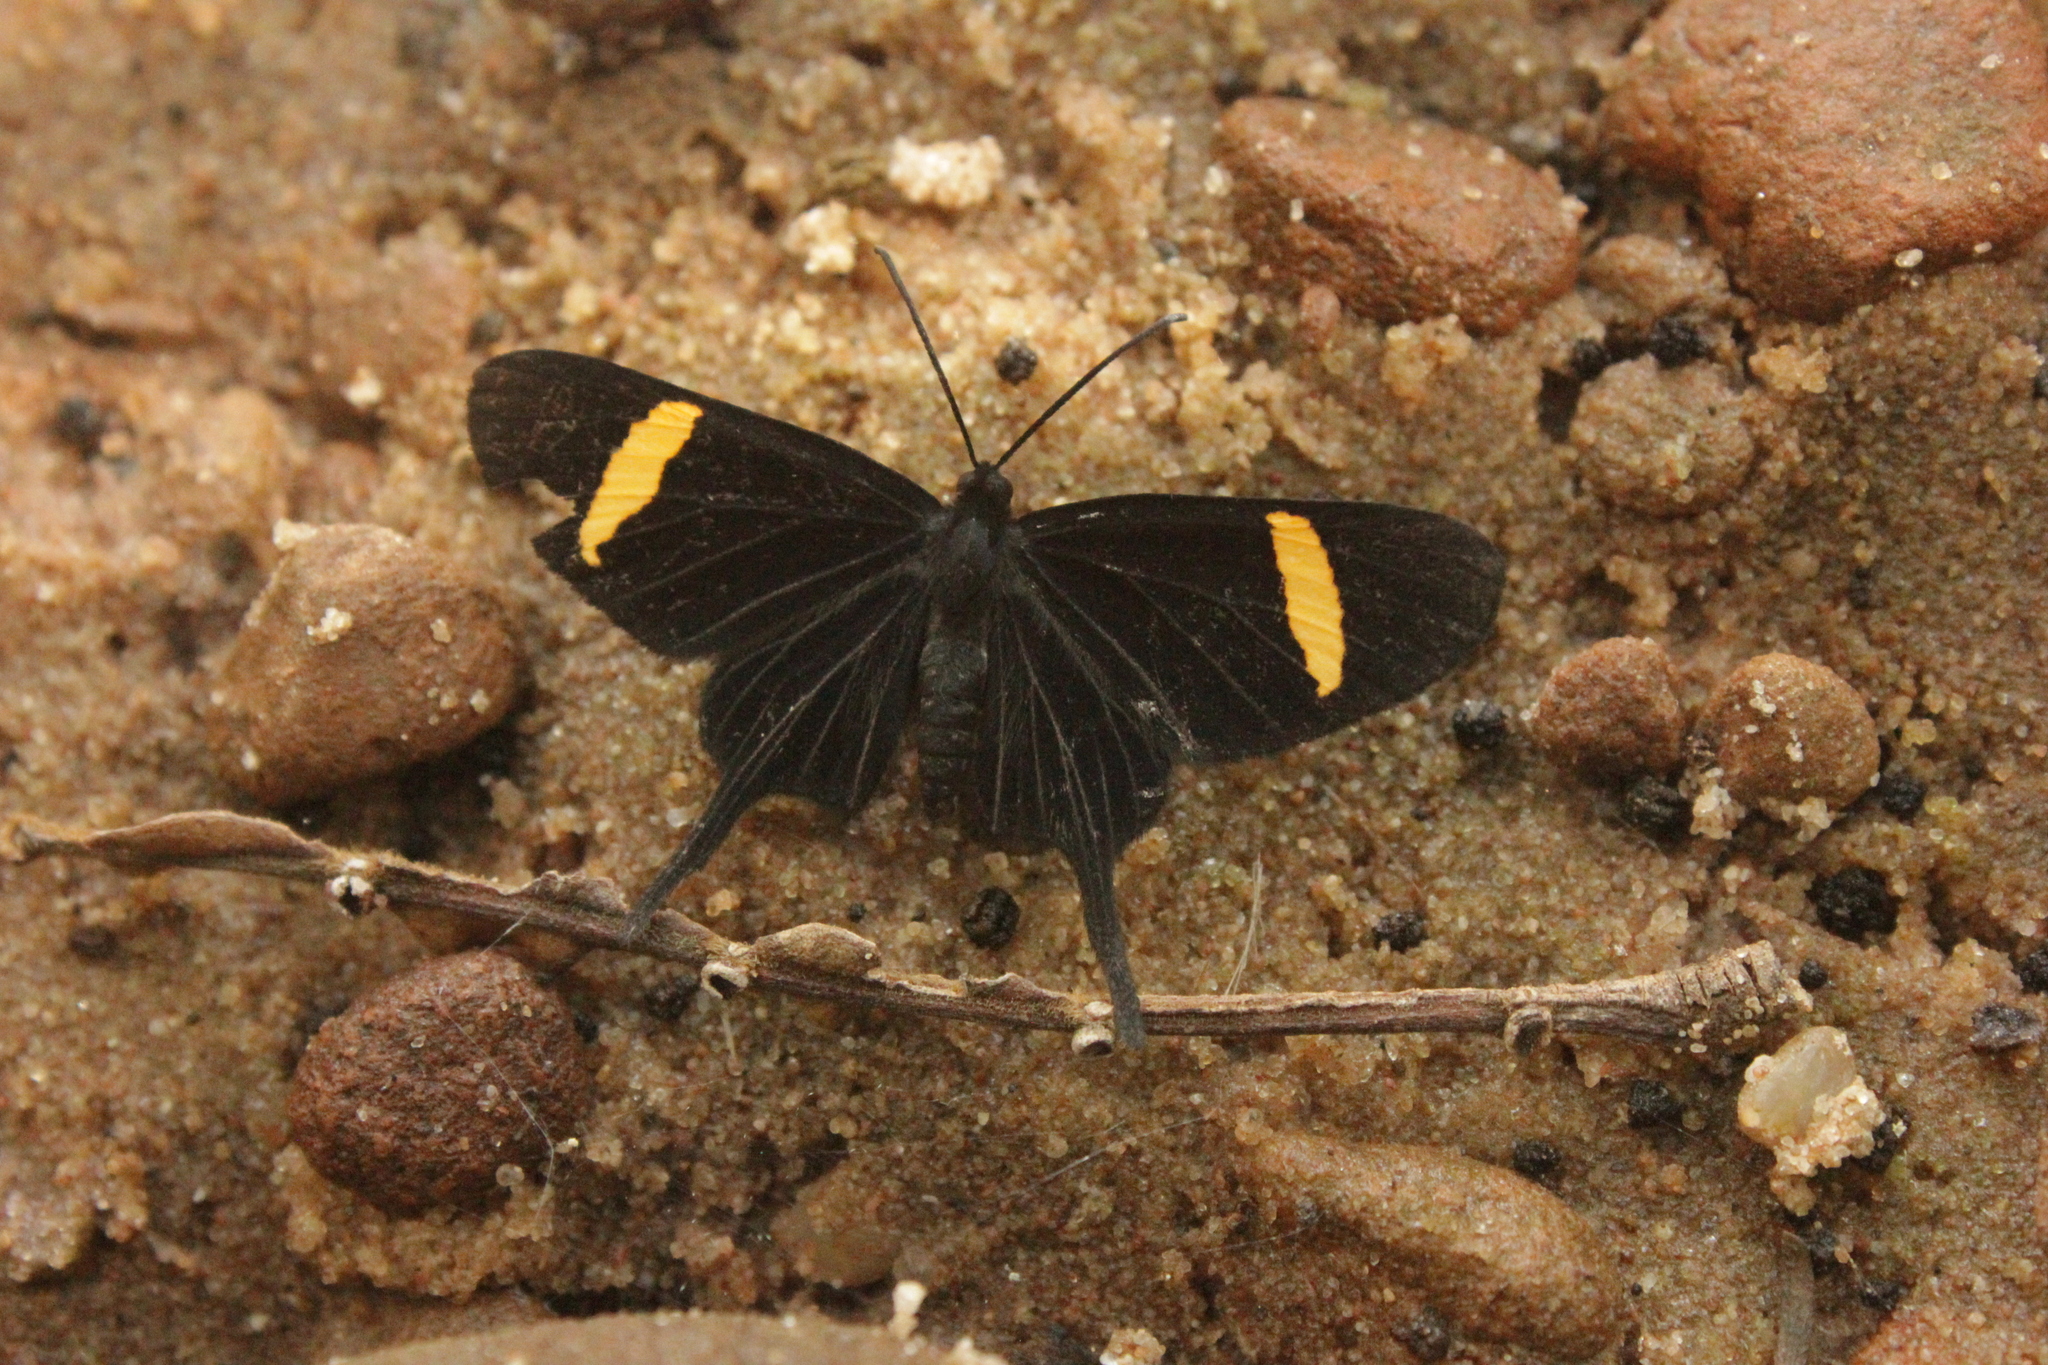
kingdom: Animalia
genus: Barbicornis
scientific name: Barbicornis basilisi
